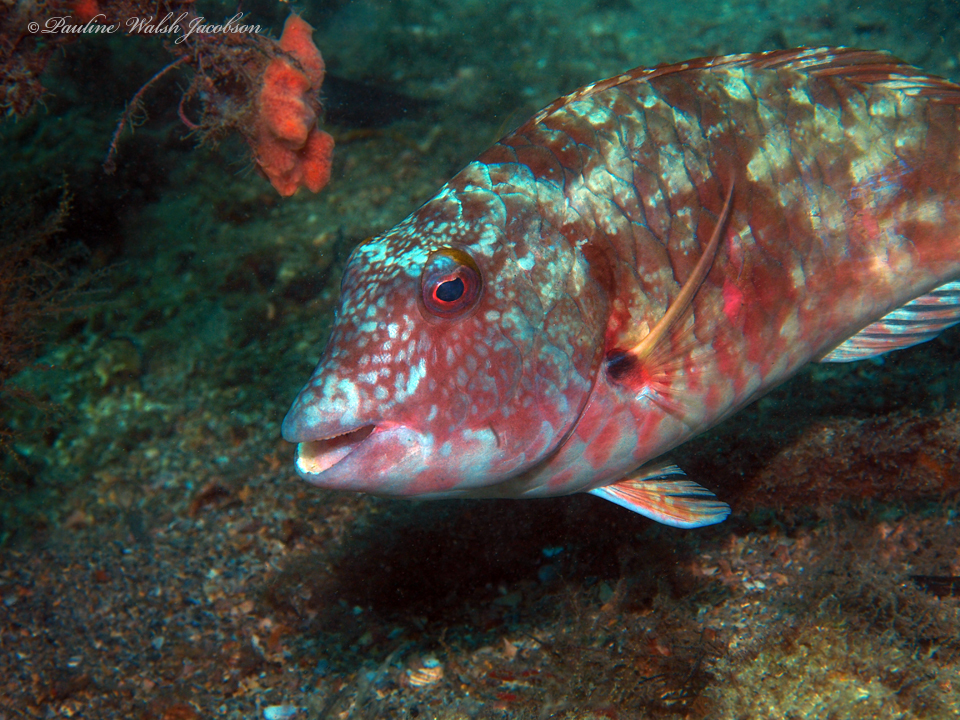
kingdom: Animalia
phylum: Chordata
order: Perciformes
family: Scaridae
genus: Sparisoma
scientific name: Sparisoma chrysopterum
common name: Redtail parrotfish
